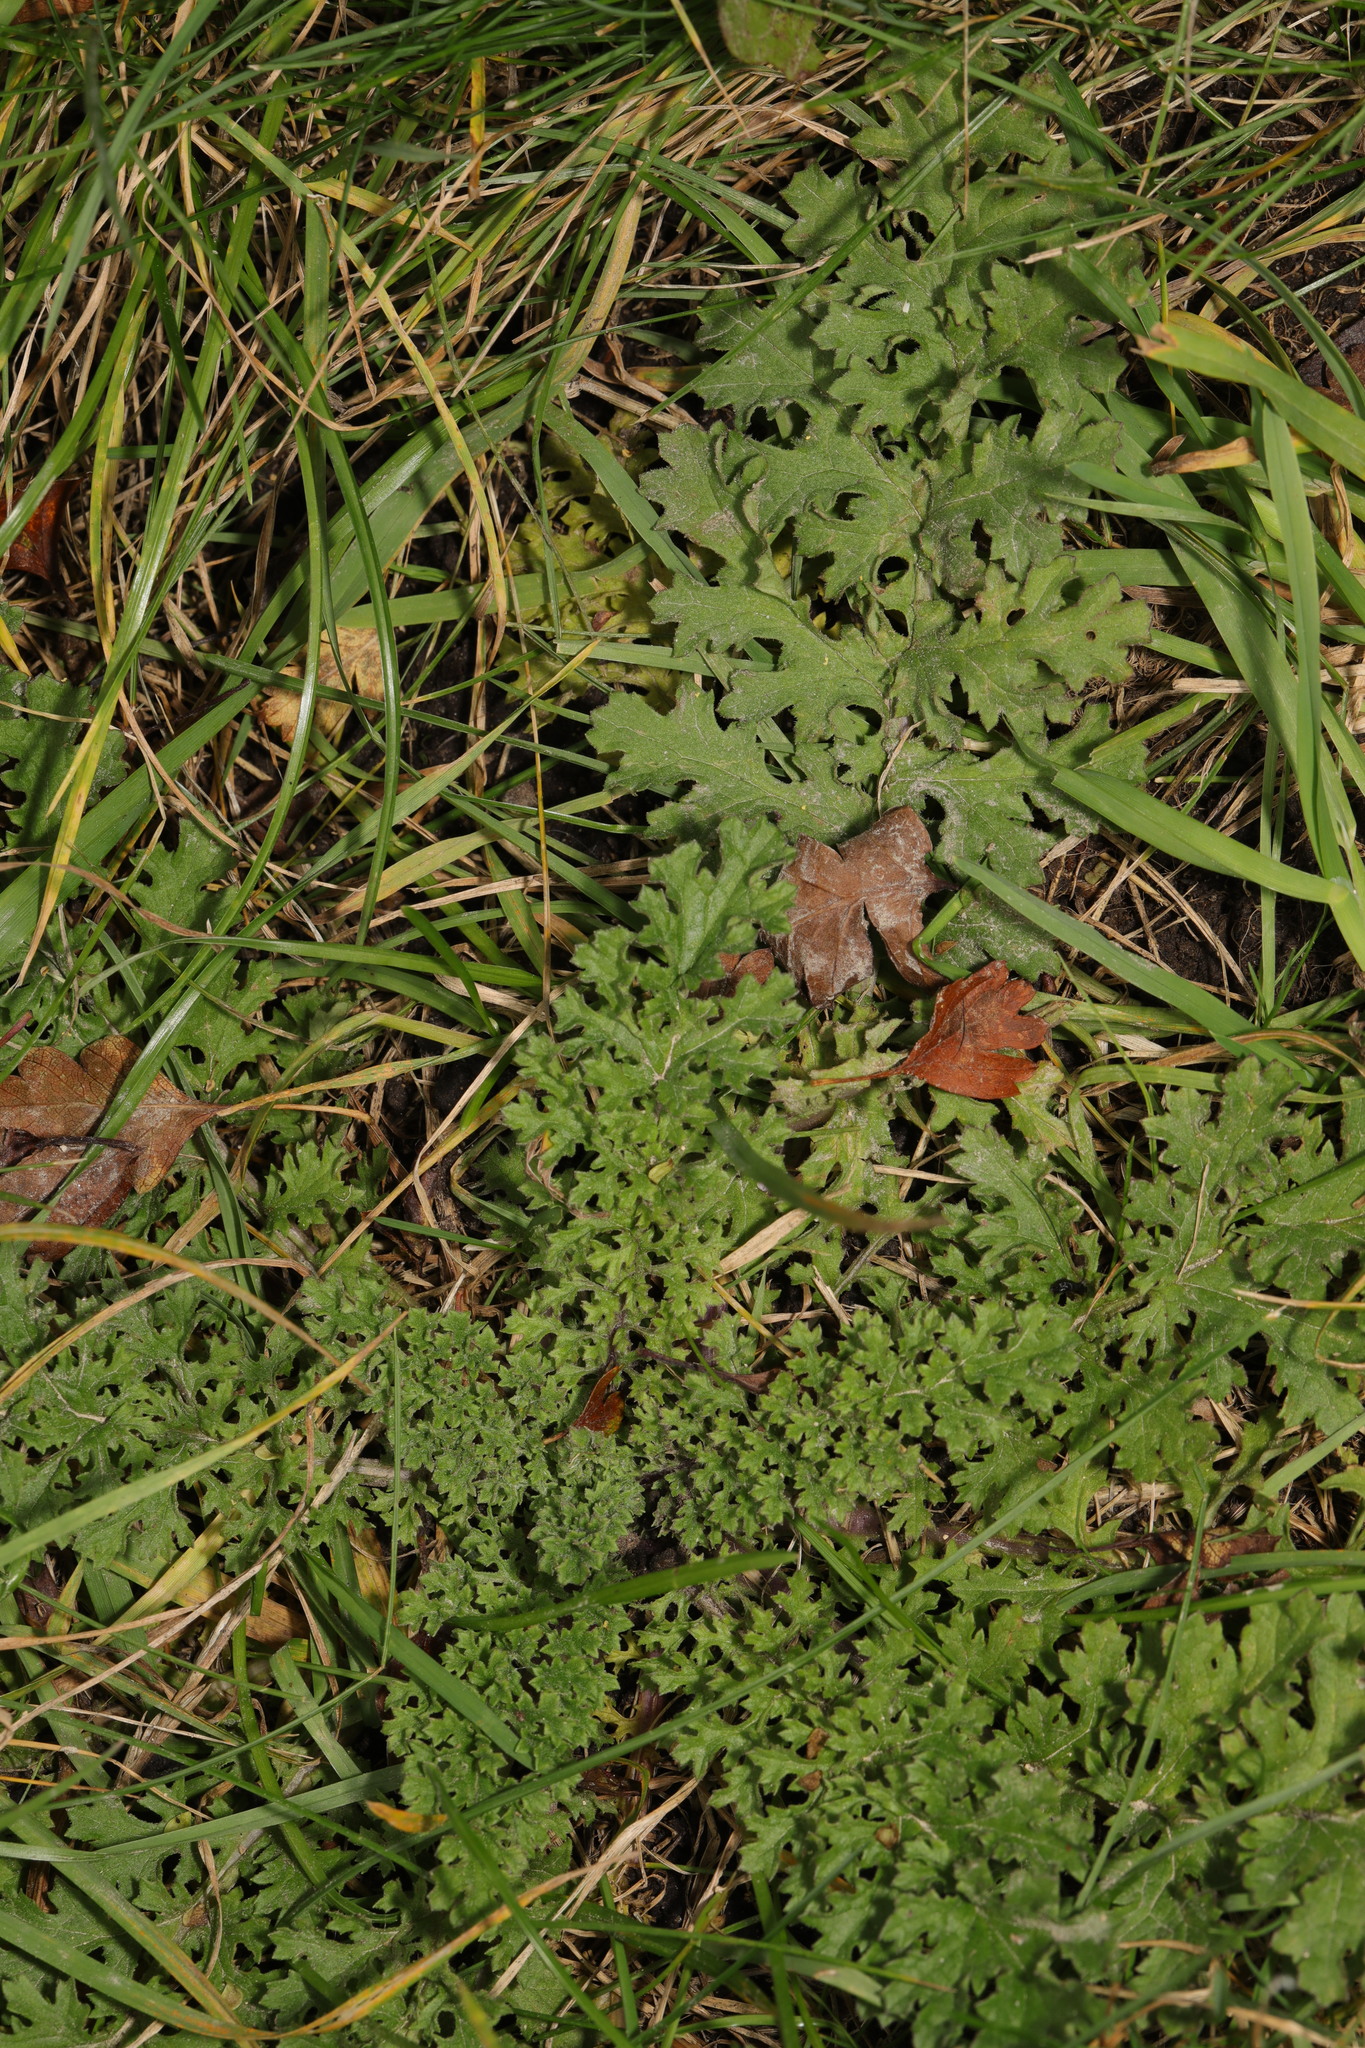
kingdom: Plantae
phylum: Tracheophyta
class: Magnoliopsida
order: Asterales
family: Asteraceae
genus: Jacobaea
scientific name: Jacobaea vulgaris
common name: Stinking willie
